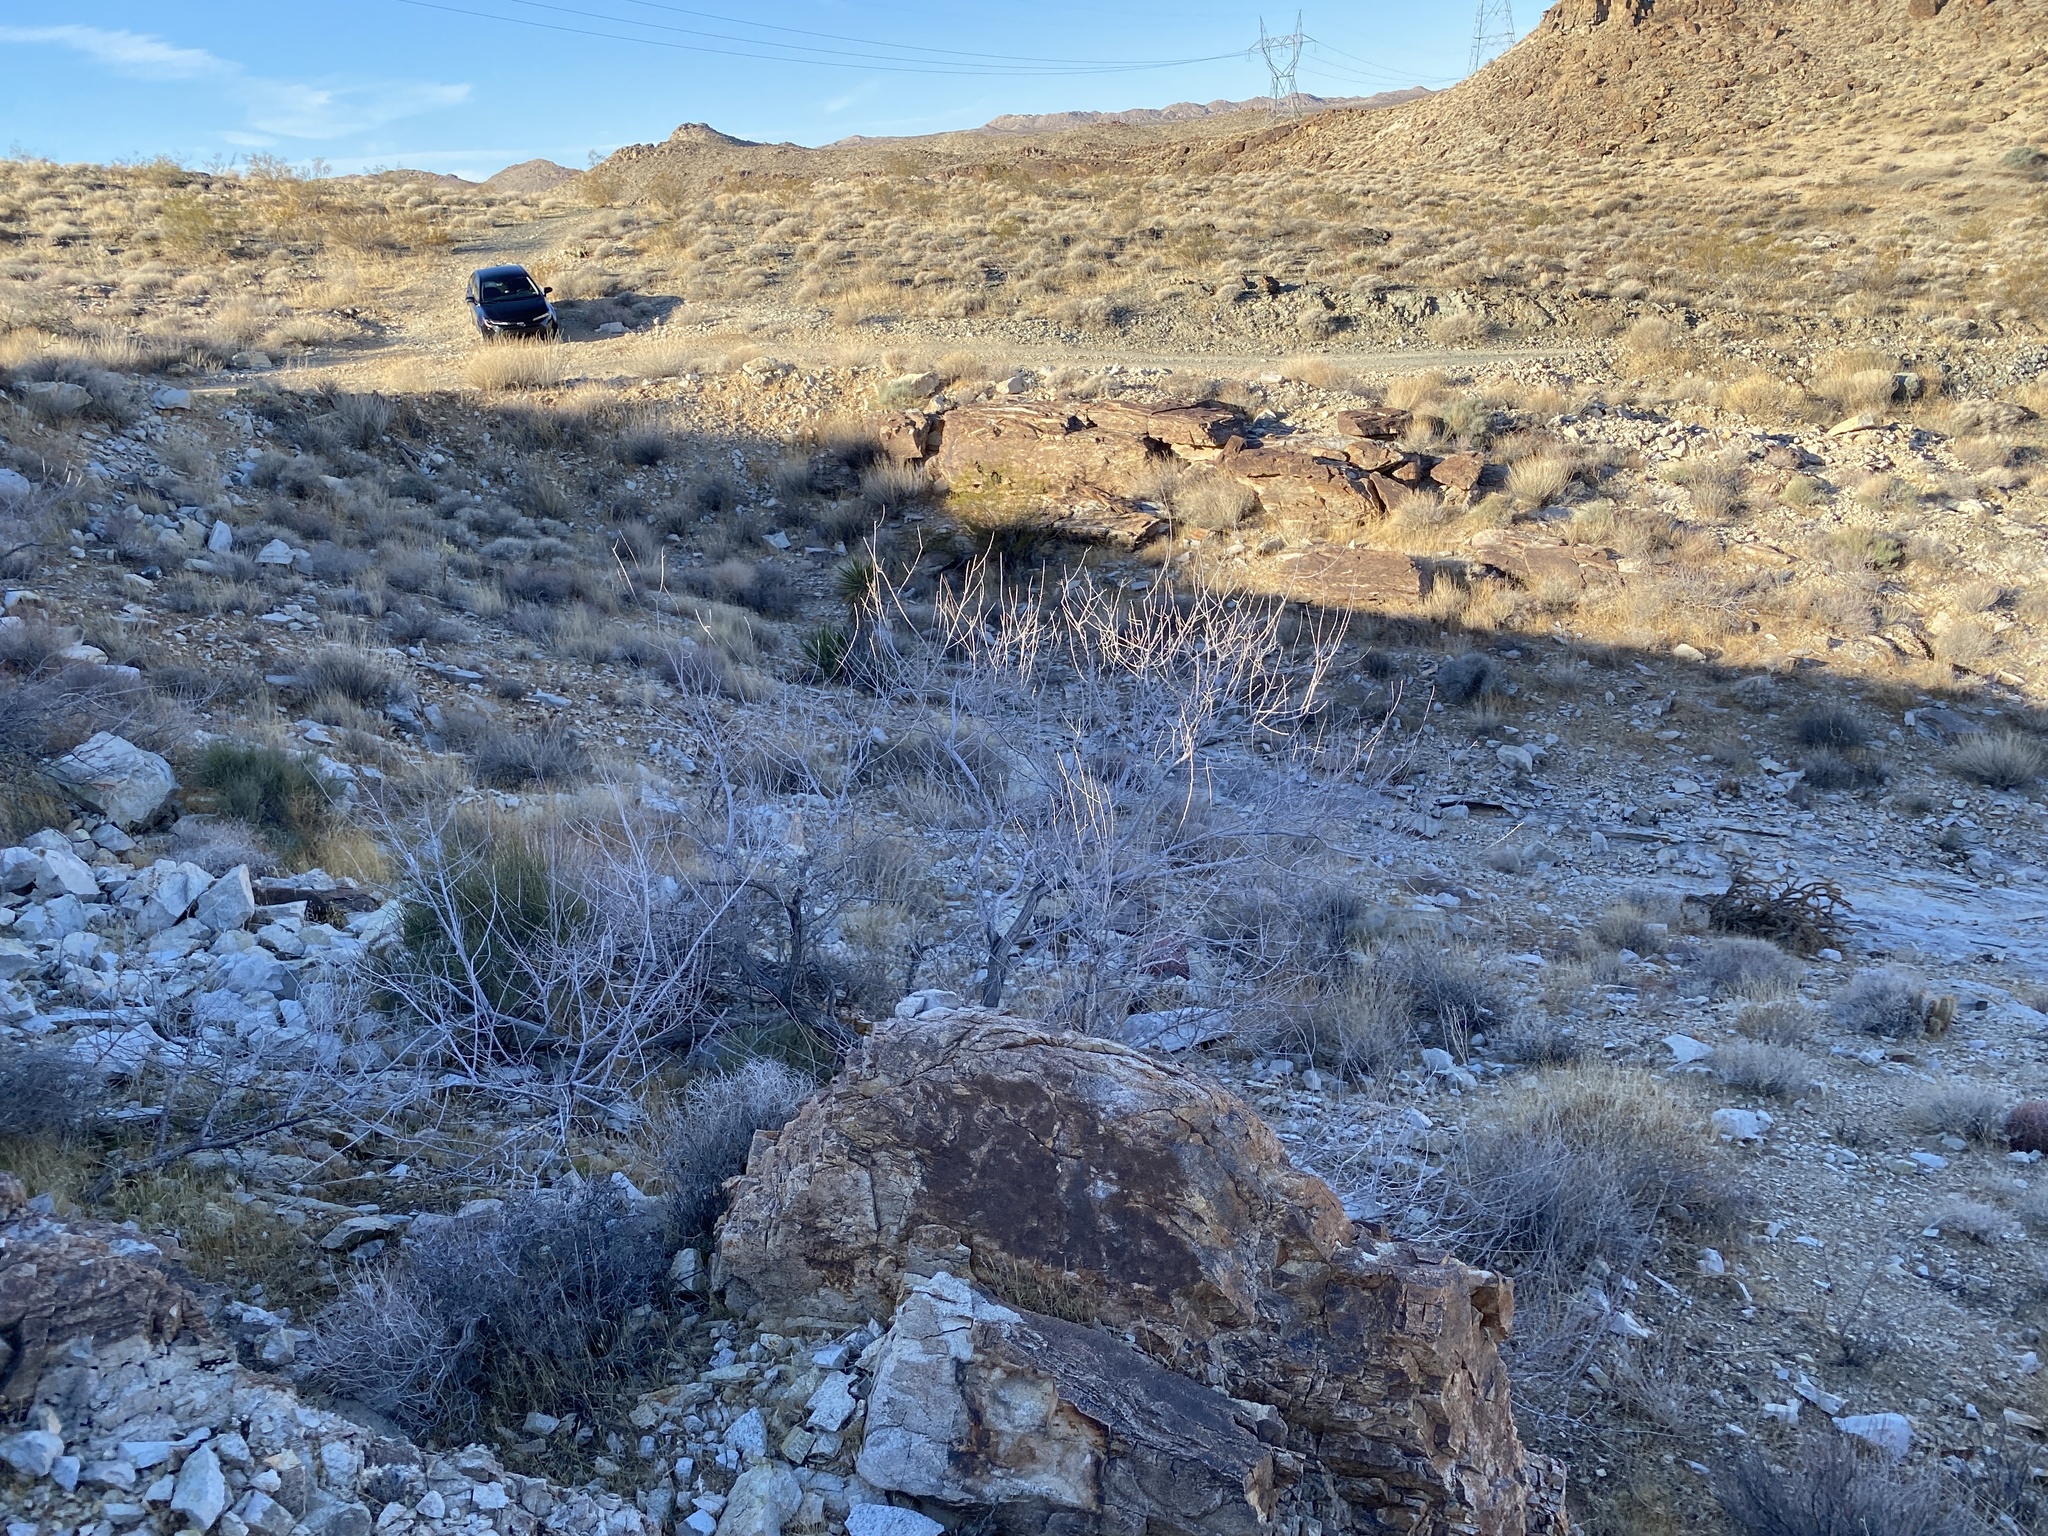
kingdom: Plantae
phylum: Tracheophyta
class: Magnoliopsida
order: Fabales
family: Fabaceae
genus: Senegalia
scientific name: Senegalia greggii
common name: Texas-mimosa
